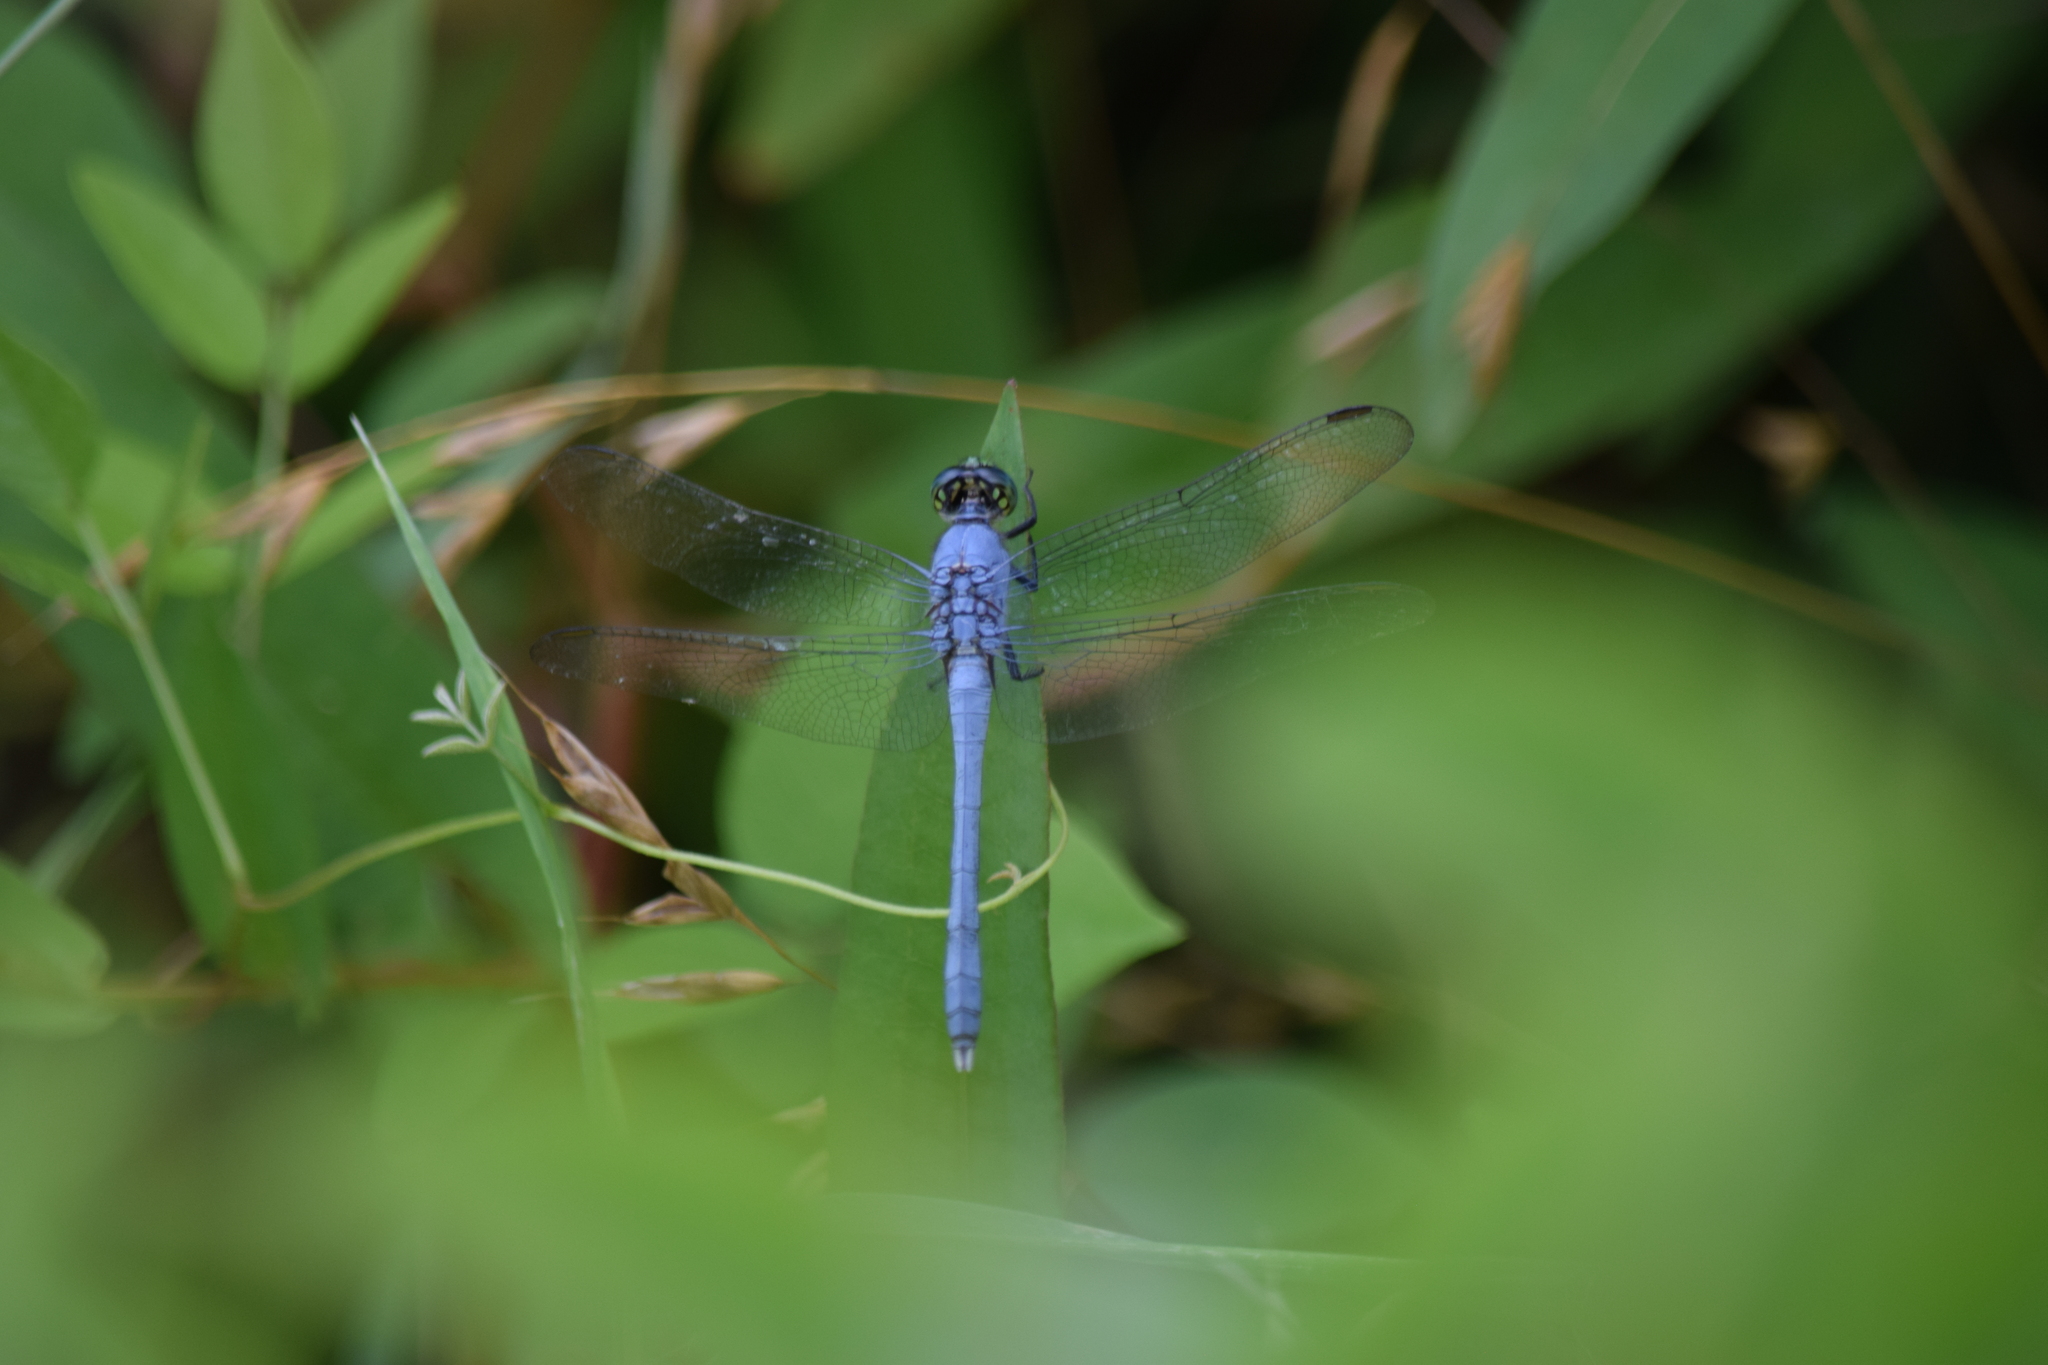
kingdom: Animalia
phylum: Arthropoda
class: Insecta
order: Odonata
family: Libellulidae
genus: Erythemis
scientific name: Erythemis simplicicollis
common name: Eastern pondhawk
